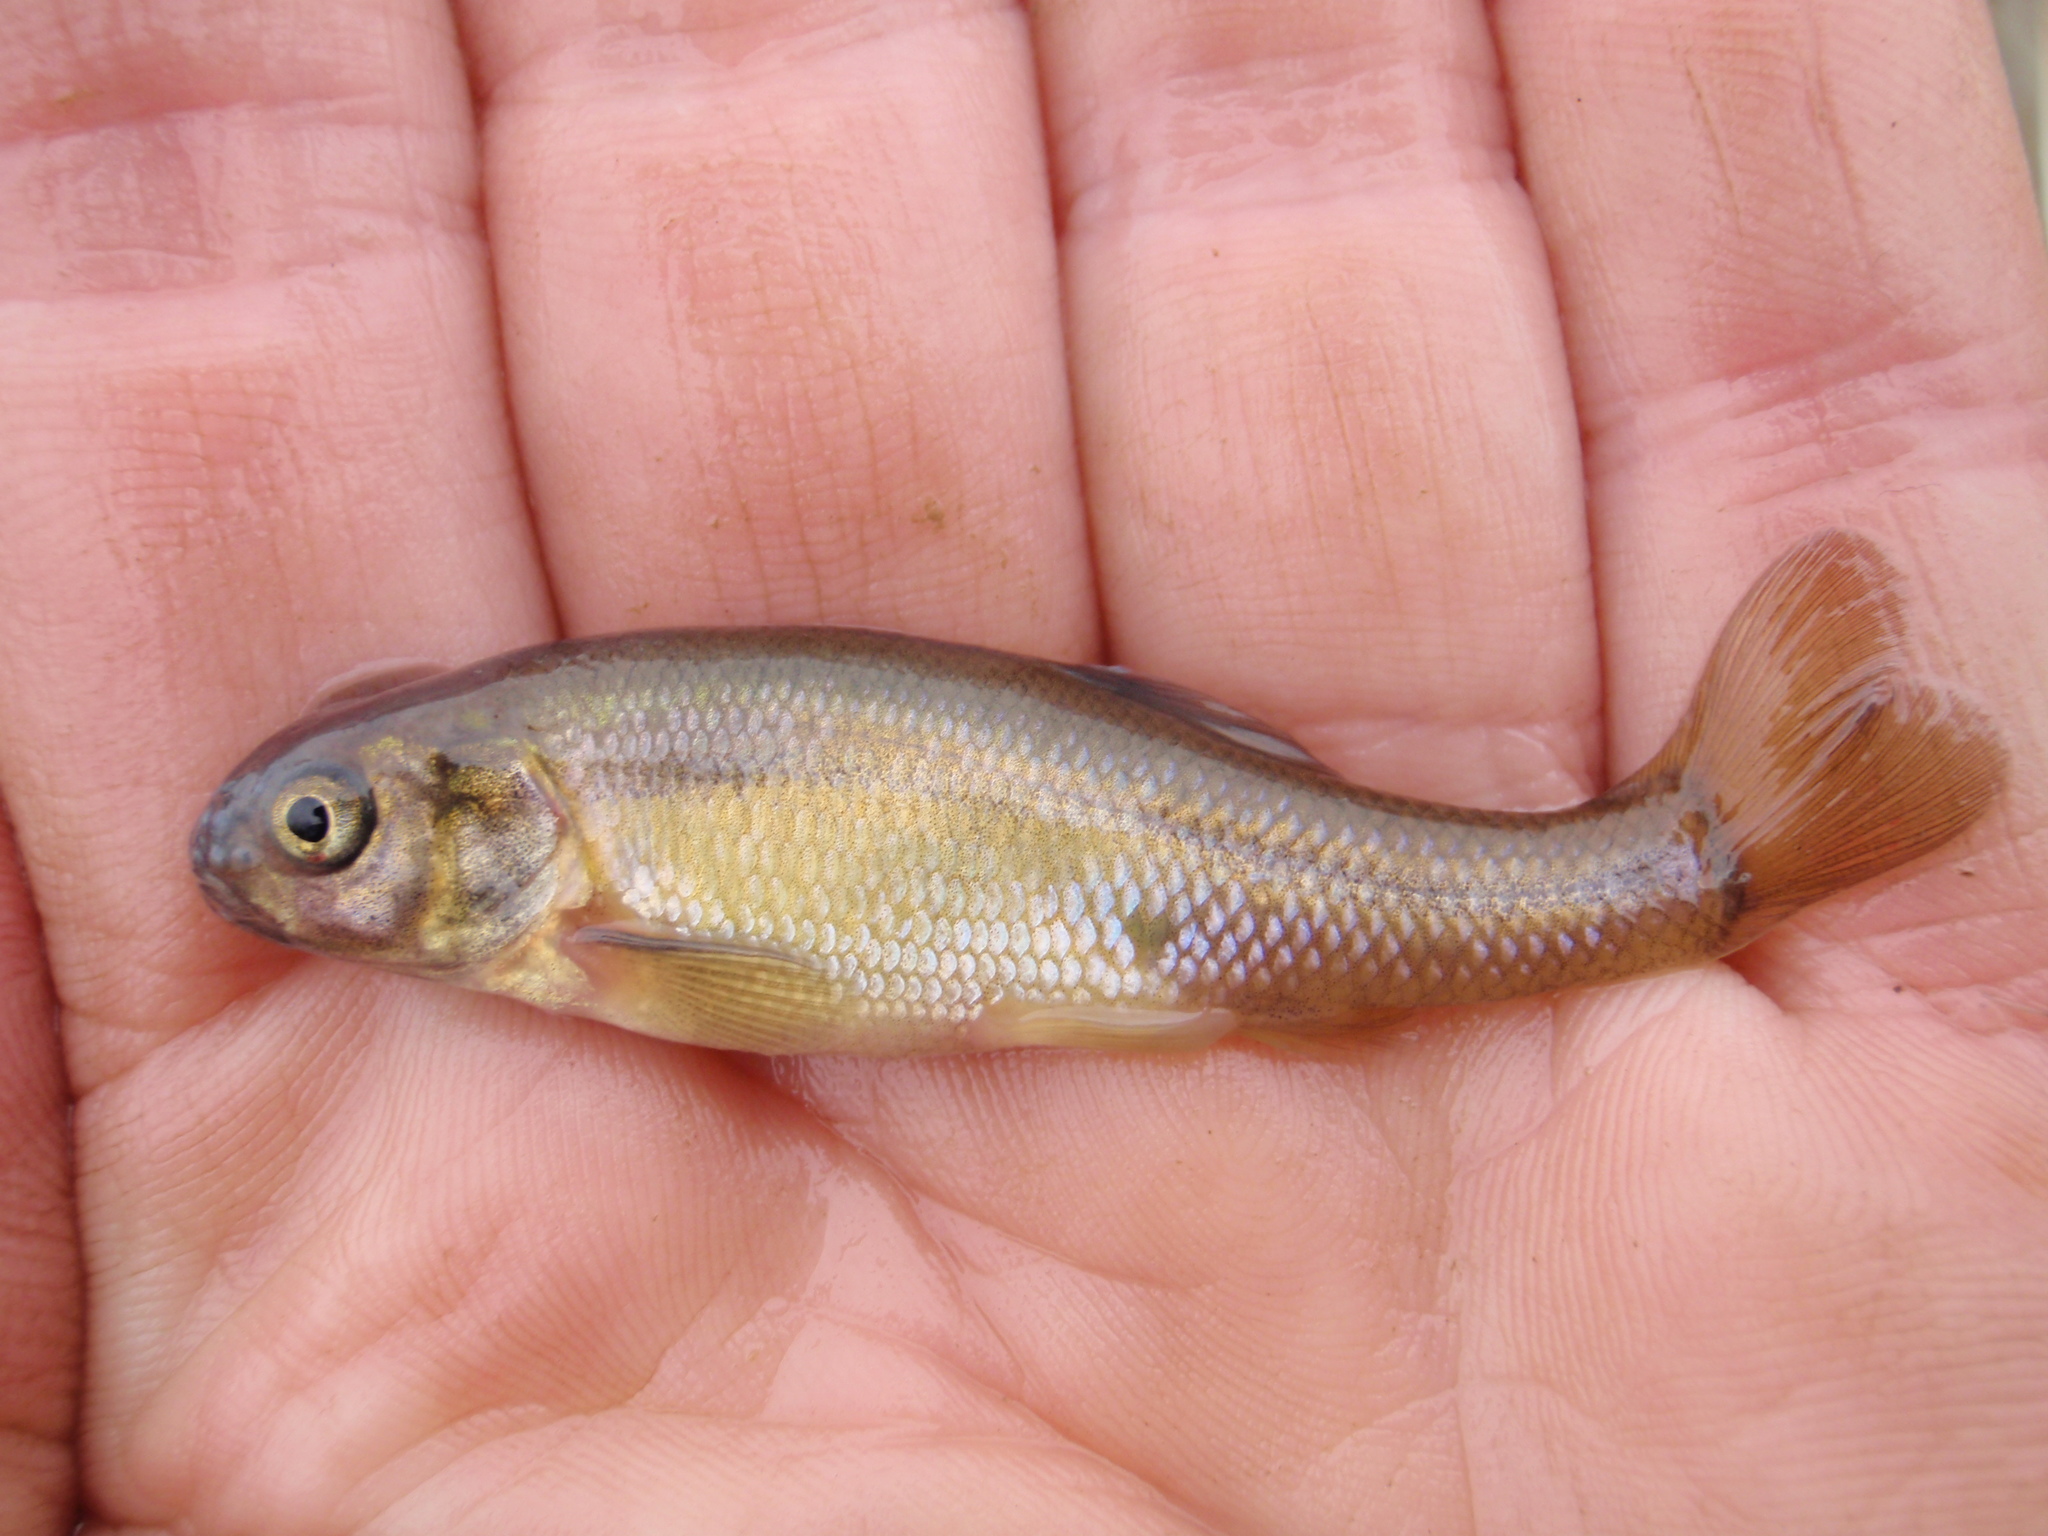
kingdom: Animalia
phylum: Chordata
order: Cypriniformes
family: Cyprinidae
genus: Pimephales
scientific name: Pimephales promelas
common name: Fathead minnow
